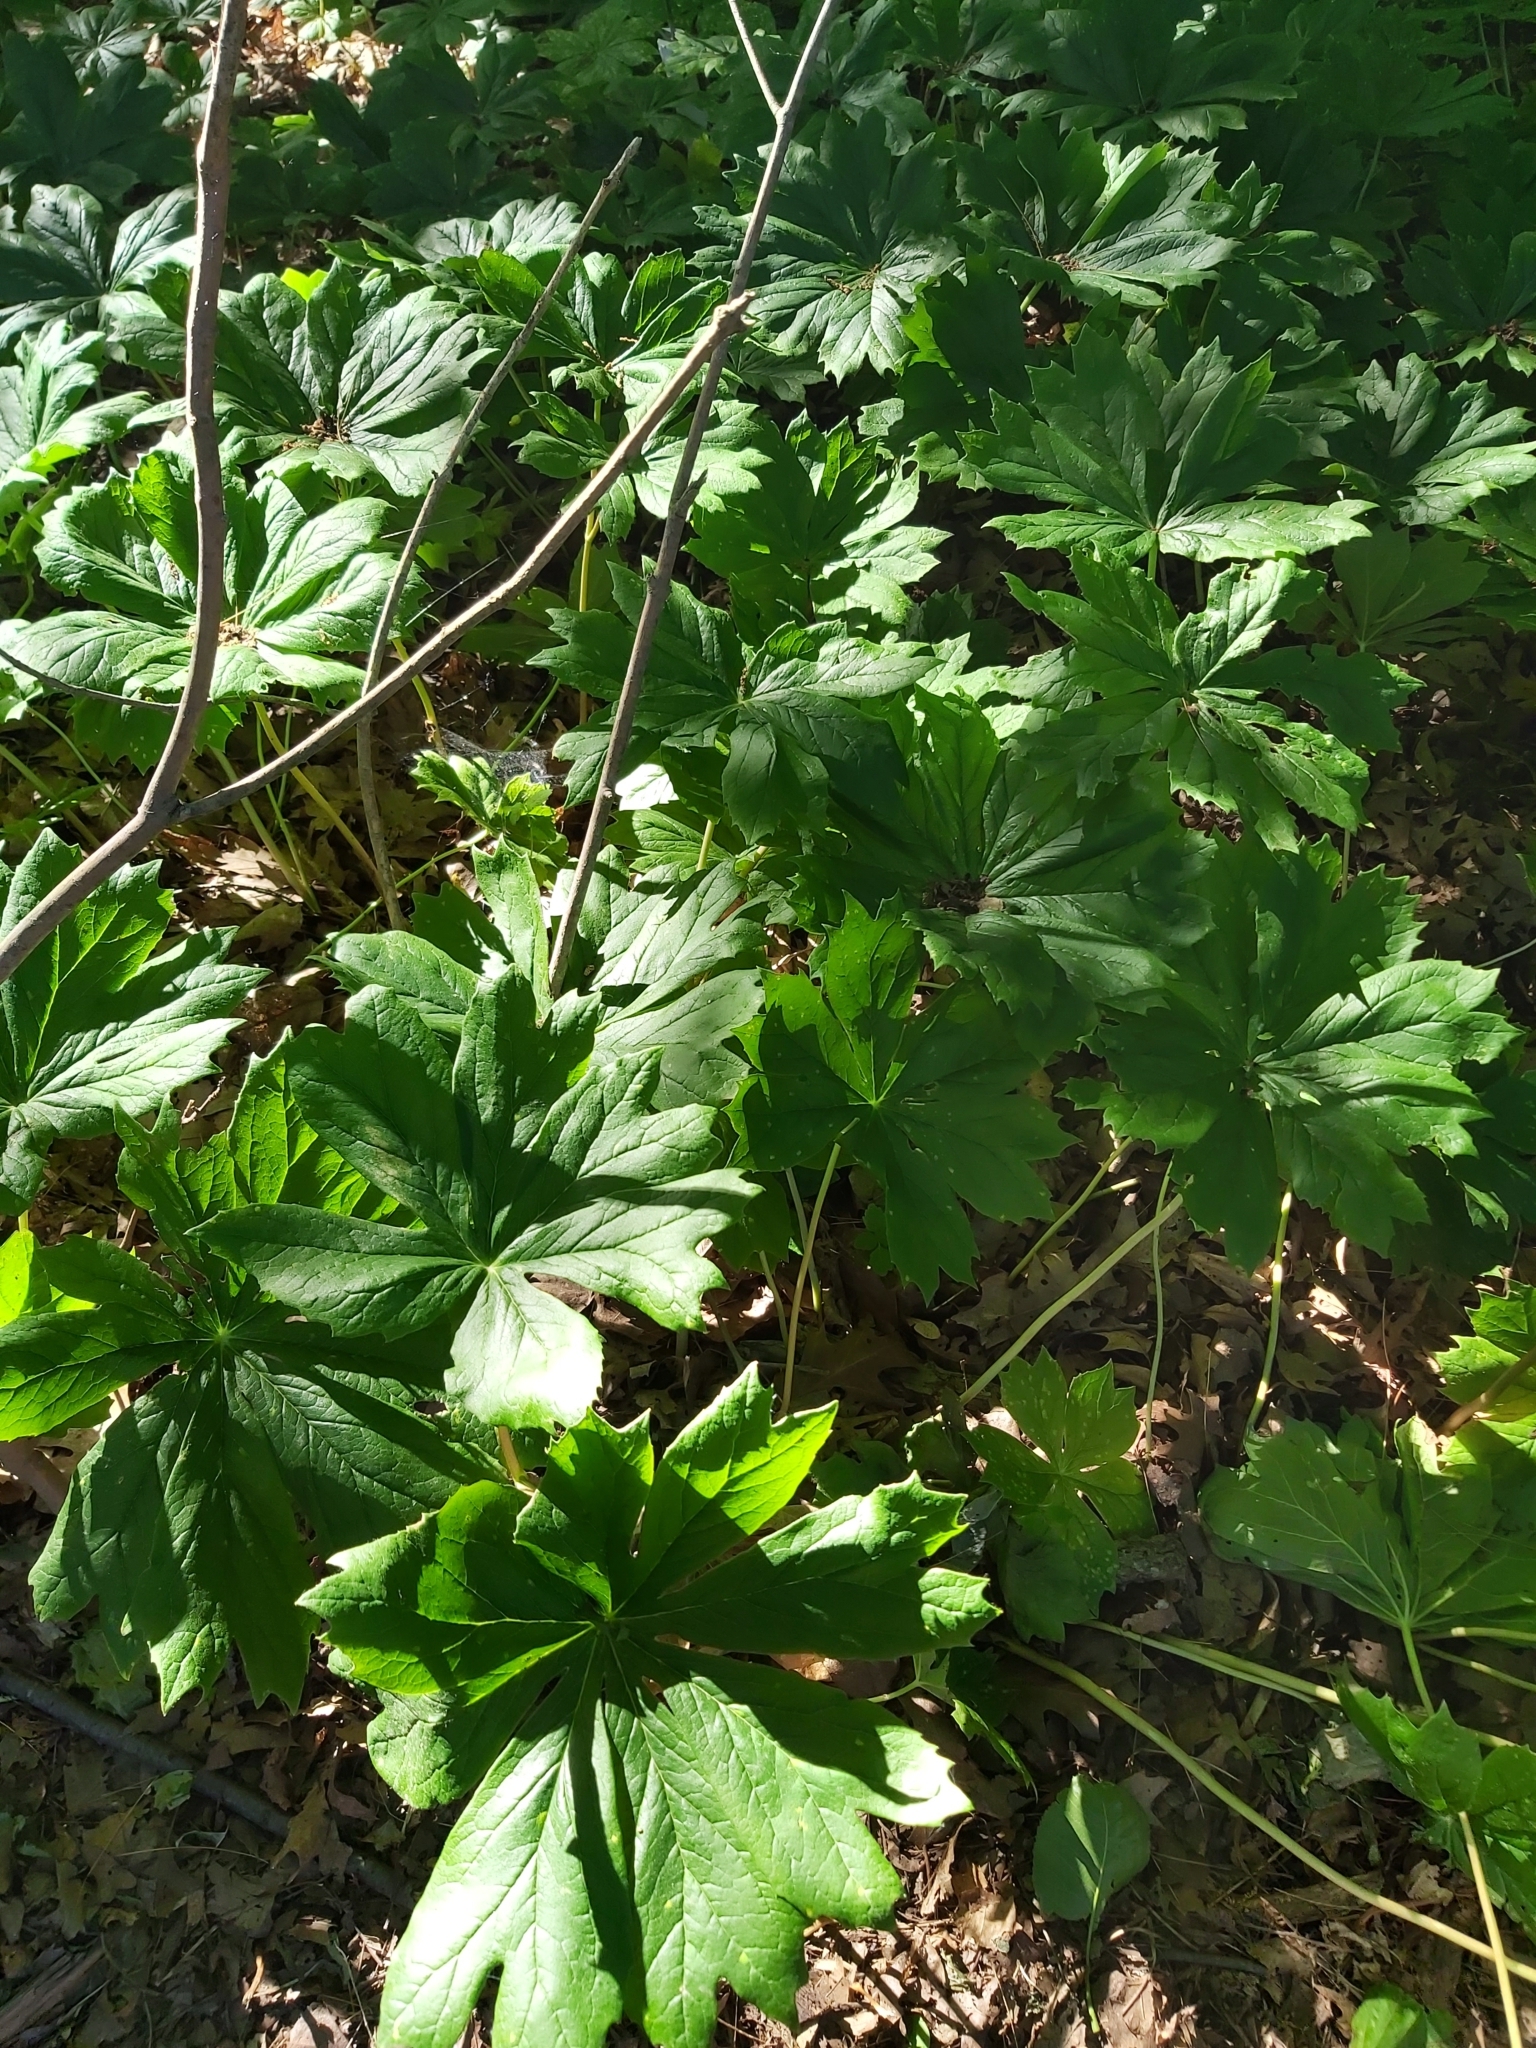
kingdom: Plantae
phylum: Tracheophyta
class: Magnoliopsida
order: Ranunculales
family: Berberidaceae
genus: Podophyllum
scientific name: Podophyllum peltatum
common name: Wild mandrake
